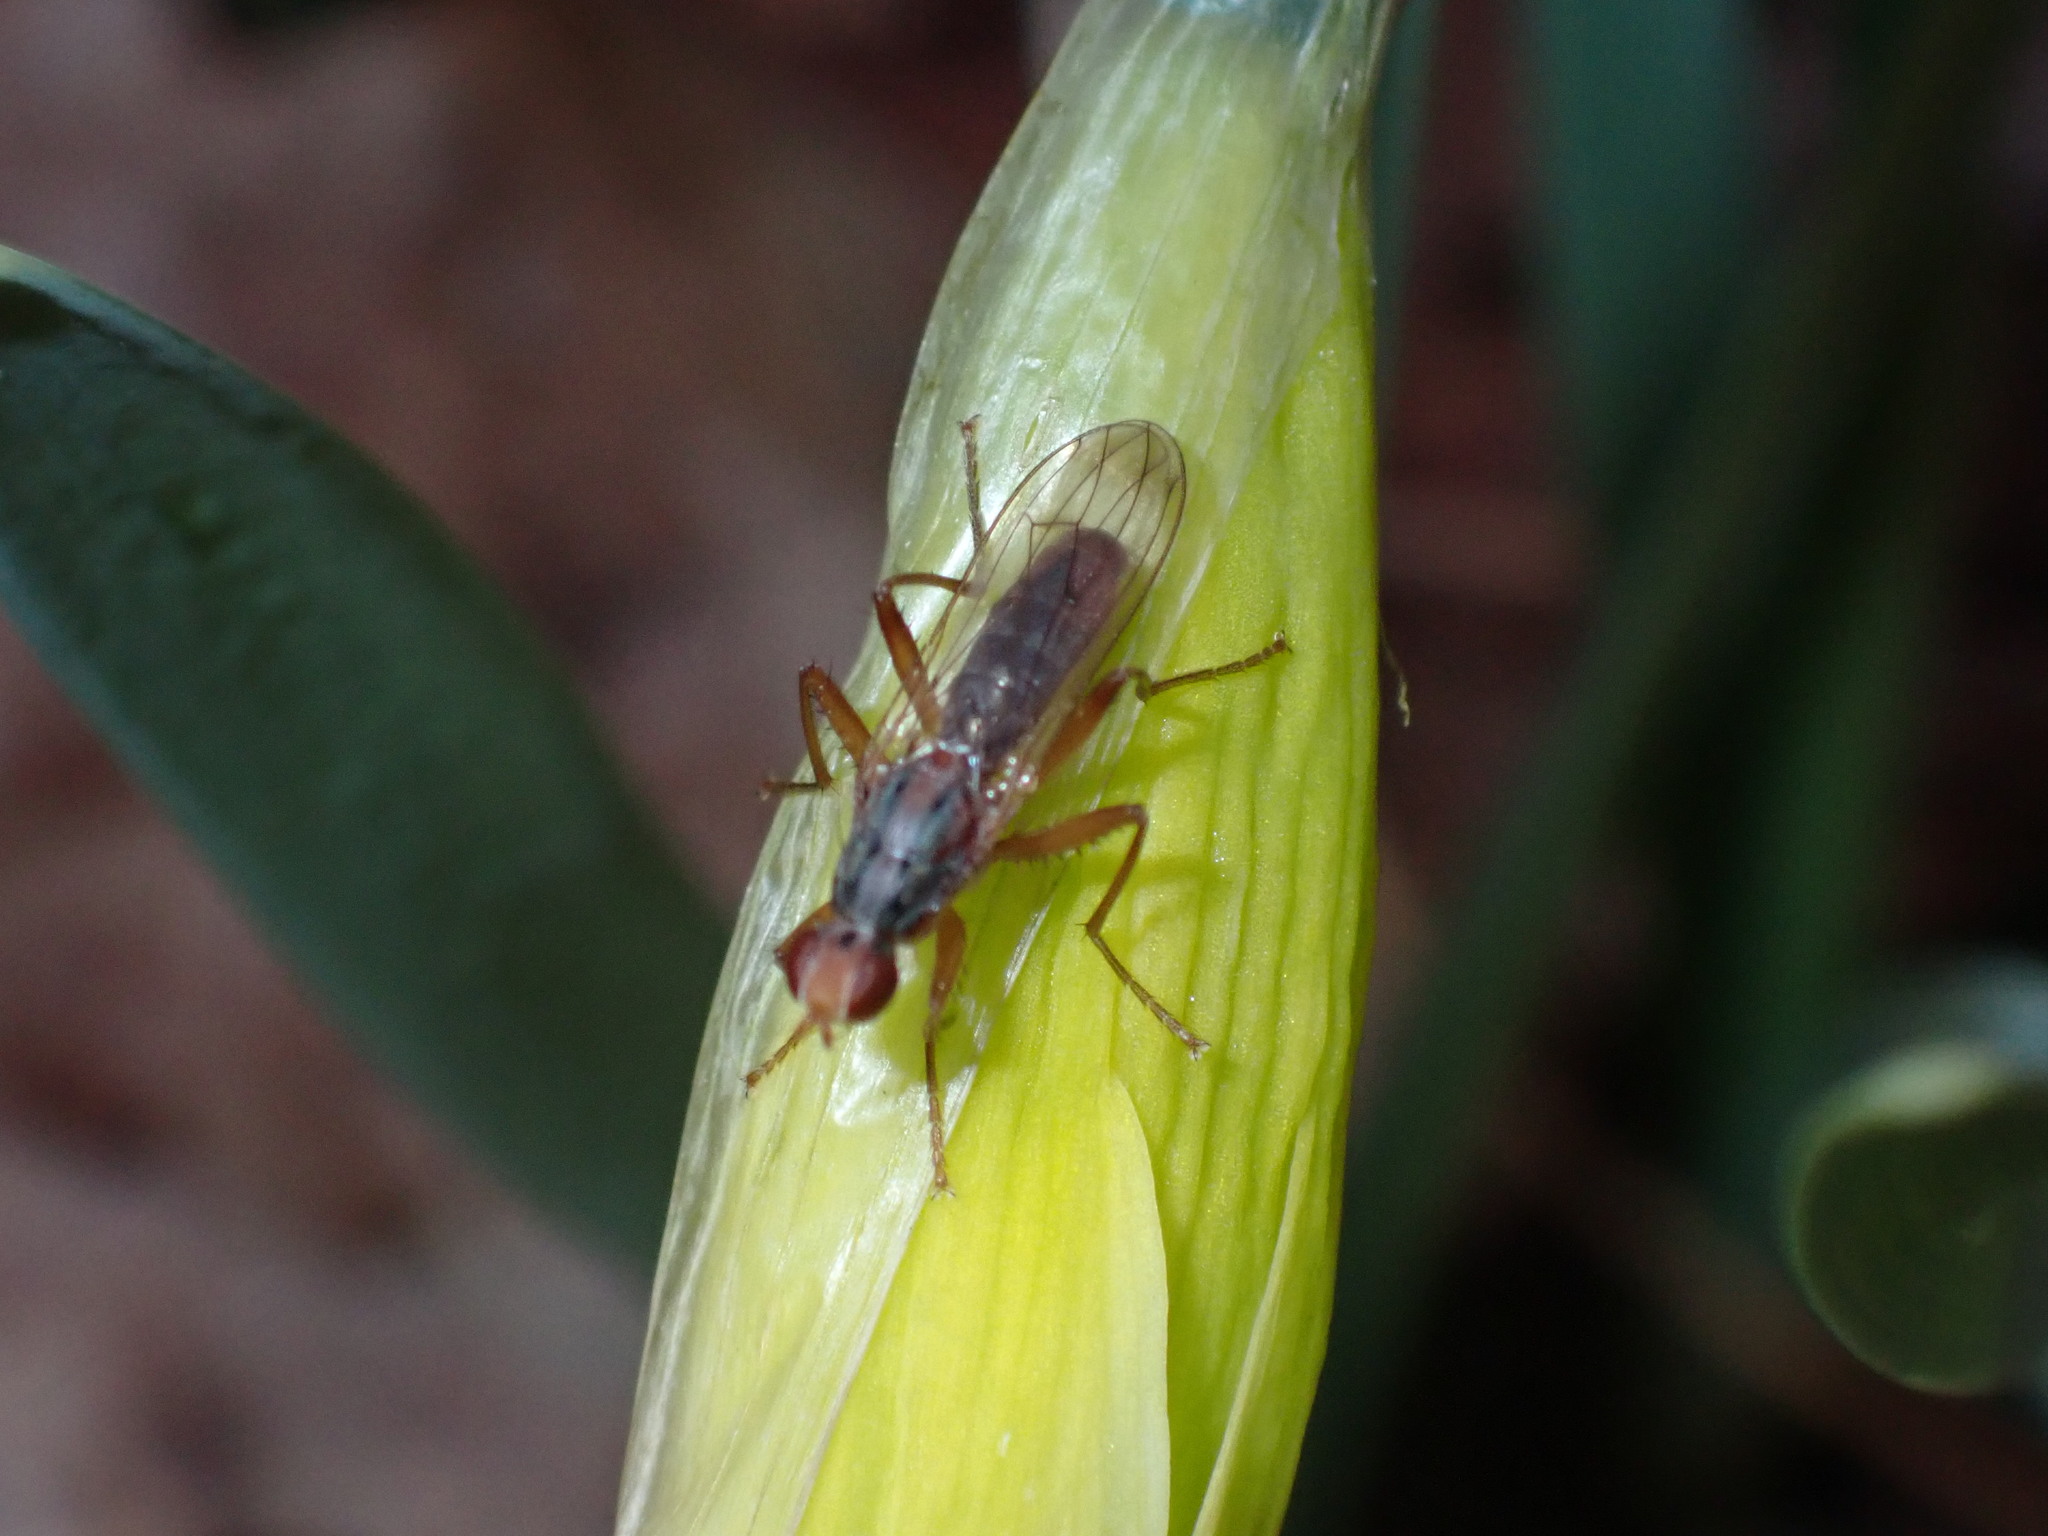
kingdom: Animalia
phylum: Arthropoda
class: Insecta
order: Diptera
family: Scathophagidae
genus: Norellia
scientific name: Norellia spinipes
